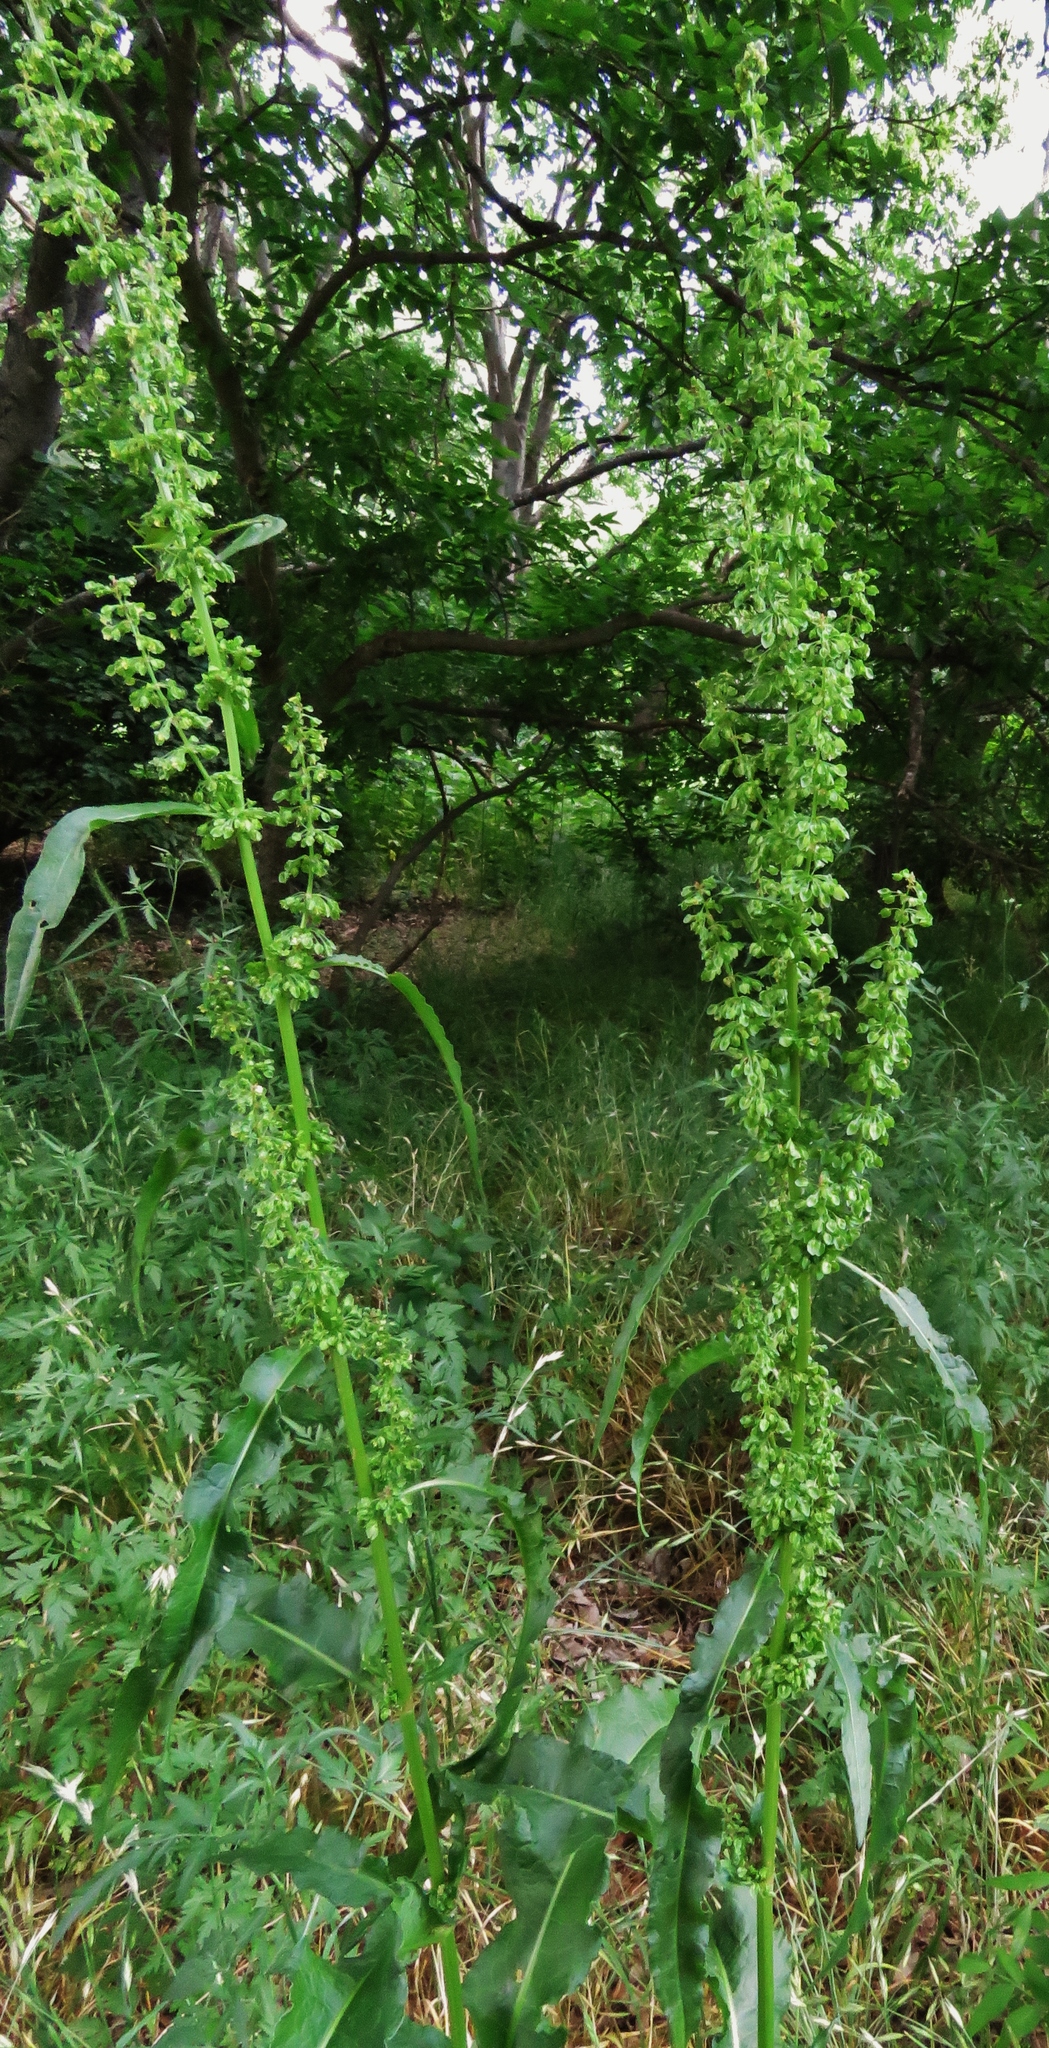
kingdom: Plantae
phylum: Tracheophyta
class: Magnoliopsida
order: Caryophyllales
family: Polygonaceae
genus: Rumex
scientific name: Rumex crispus
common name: Curled dock
